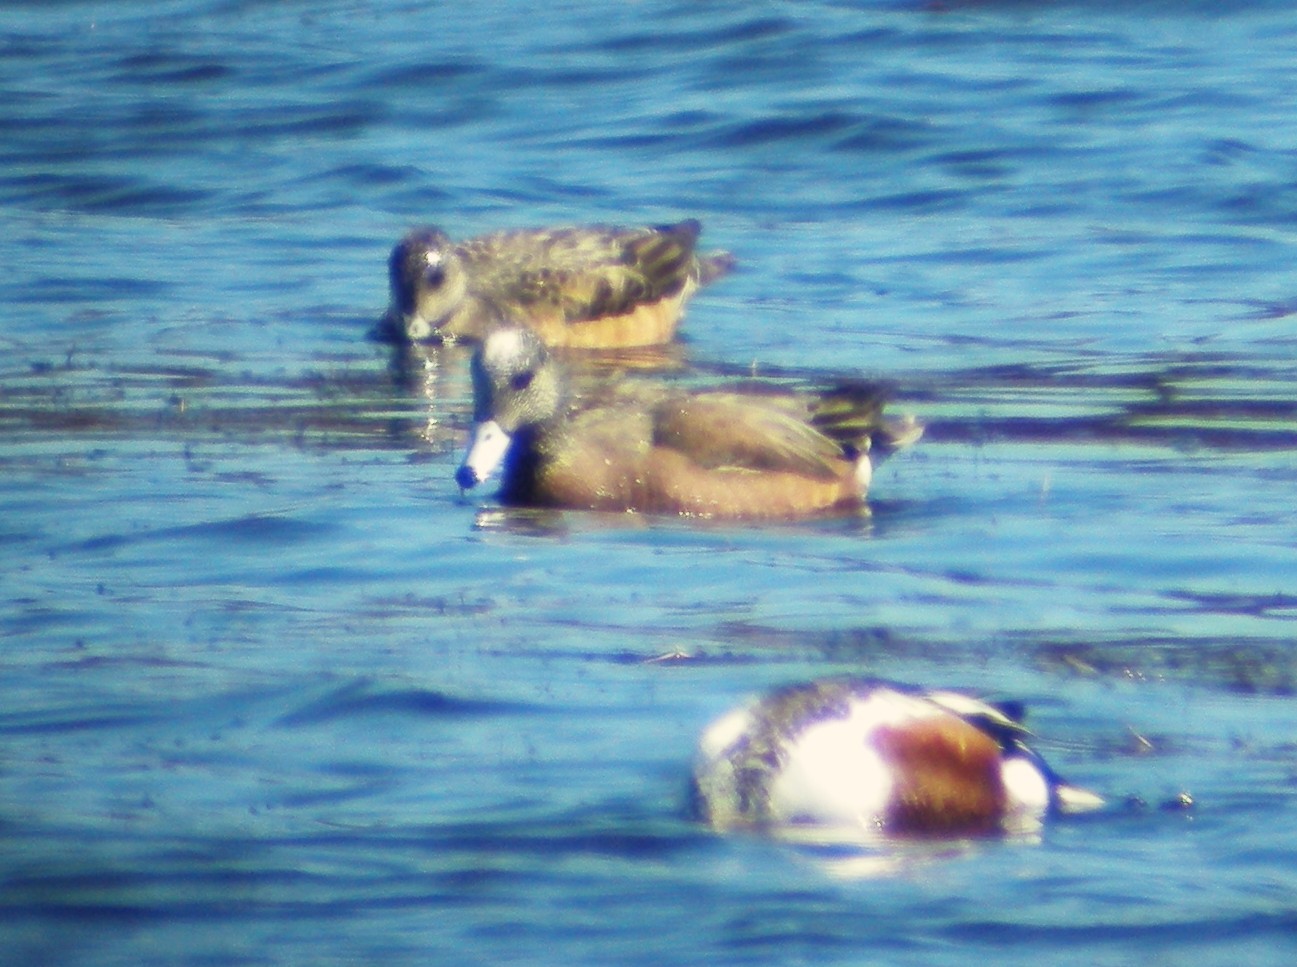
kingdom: Animalia
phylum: Chordata
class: Aves
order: Anseriformes
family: Anatidae
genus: Mareca
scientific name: Mareca americana
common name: American wigeon
